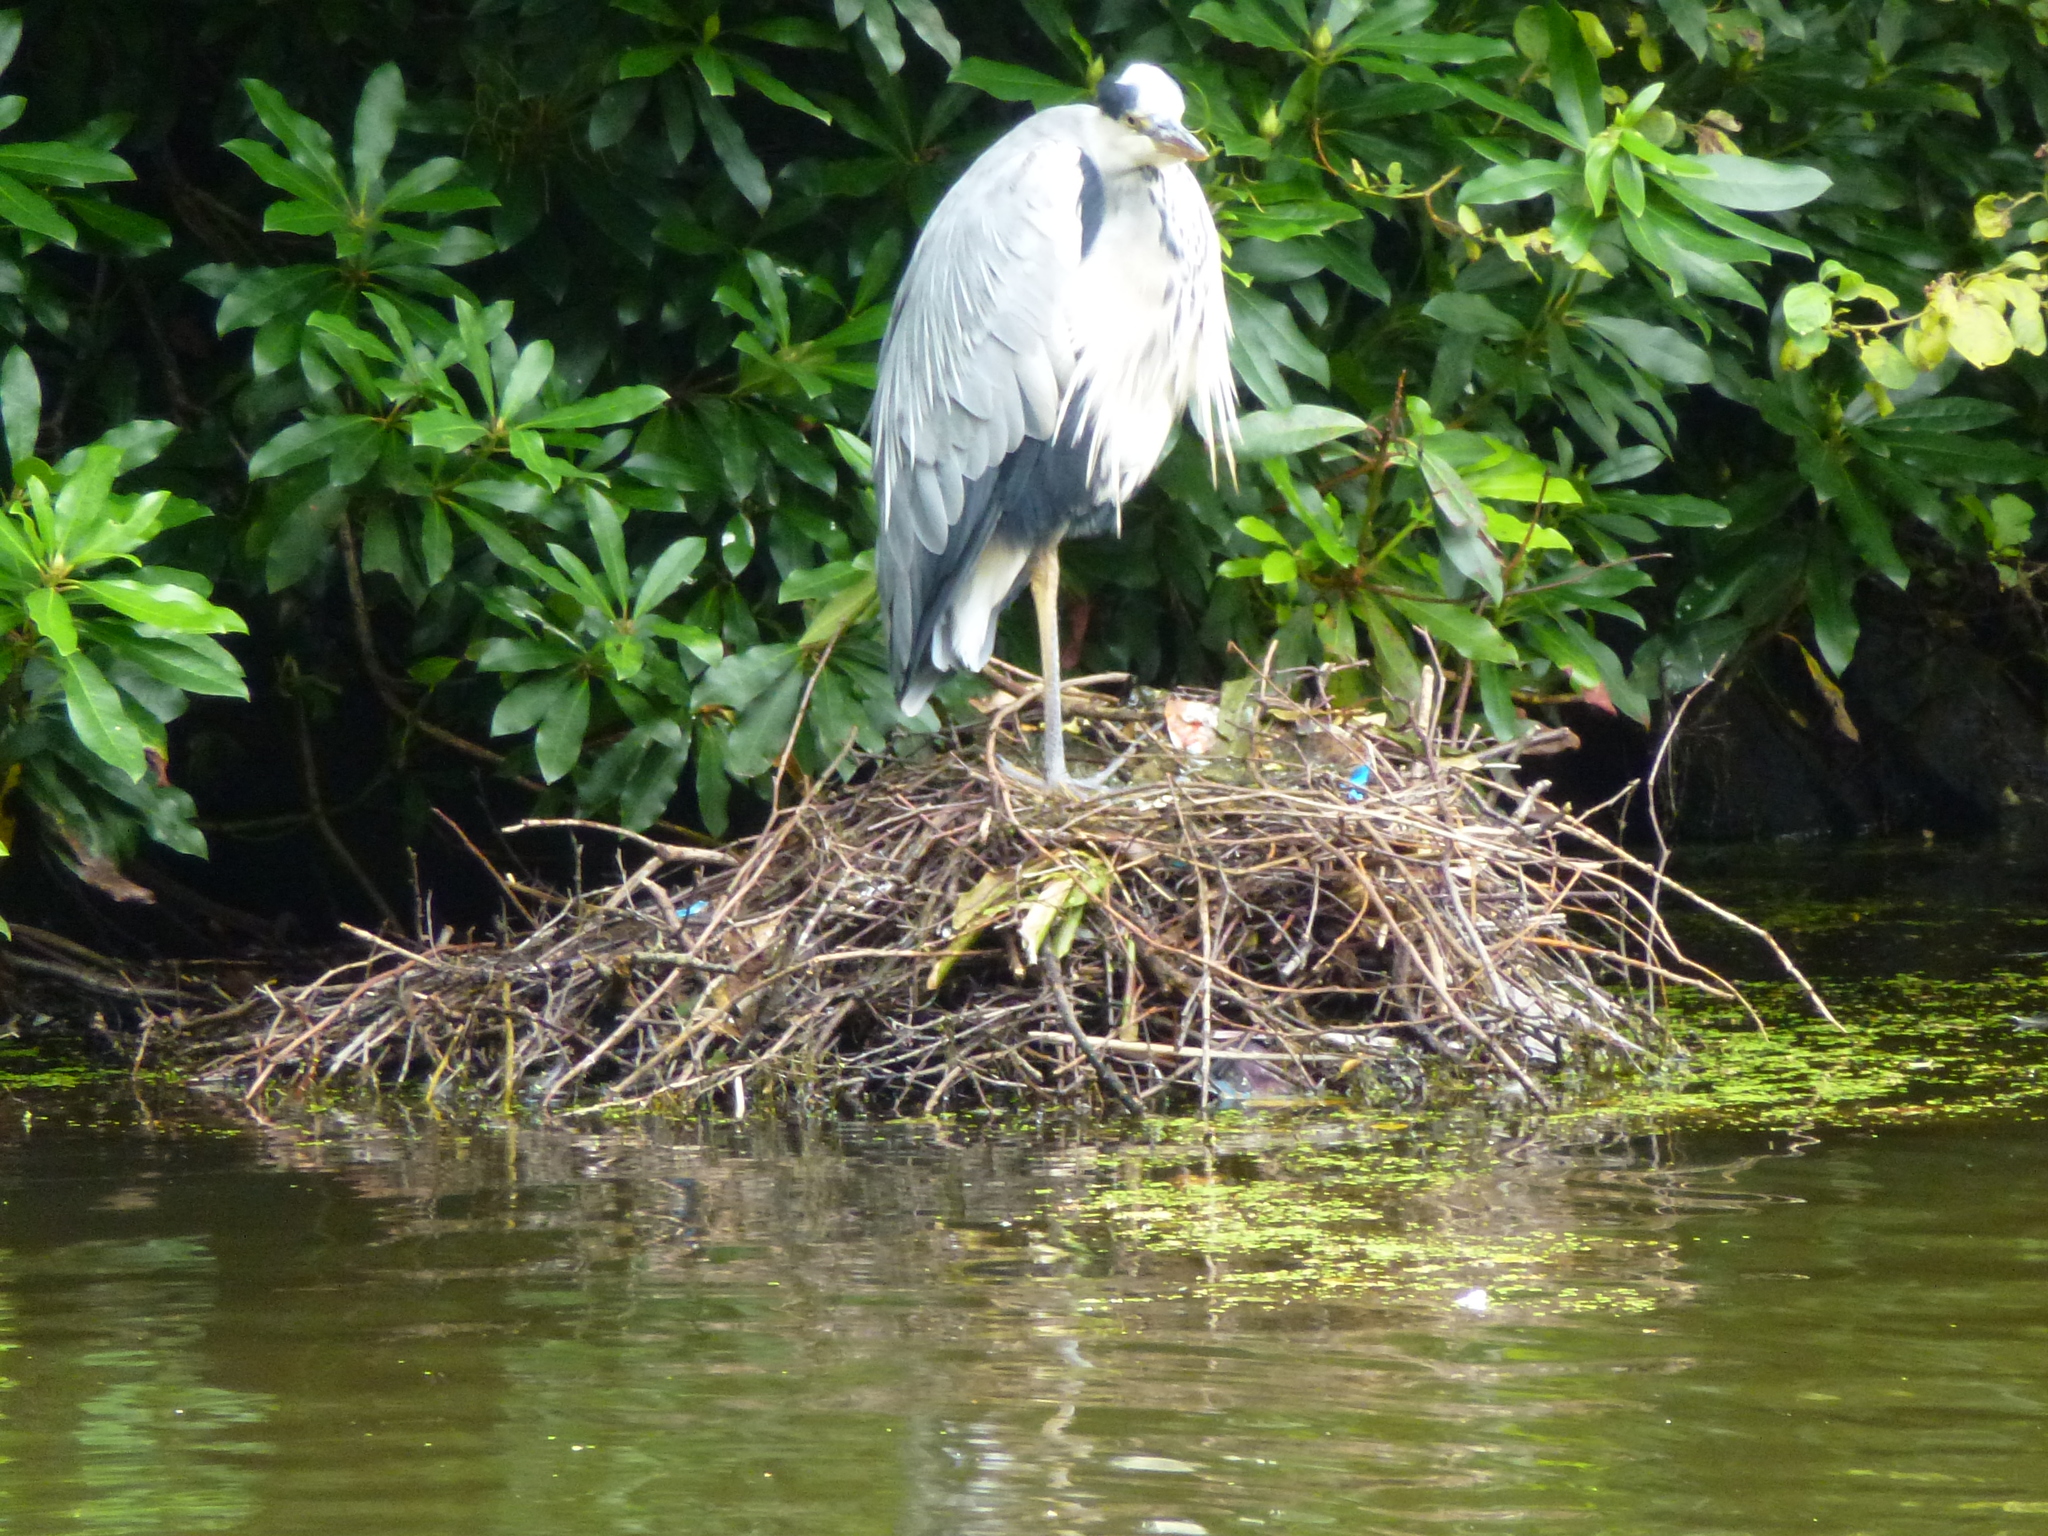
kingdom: Animalia
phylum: Chordata
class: Aves
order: Pelecaniformes
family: Ardeidae
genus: Ardea
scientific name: Ardea cinerea
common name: Grey heron
